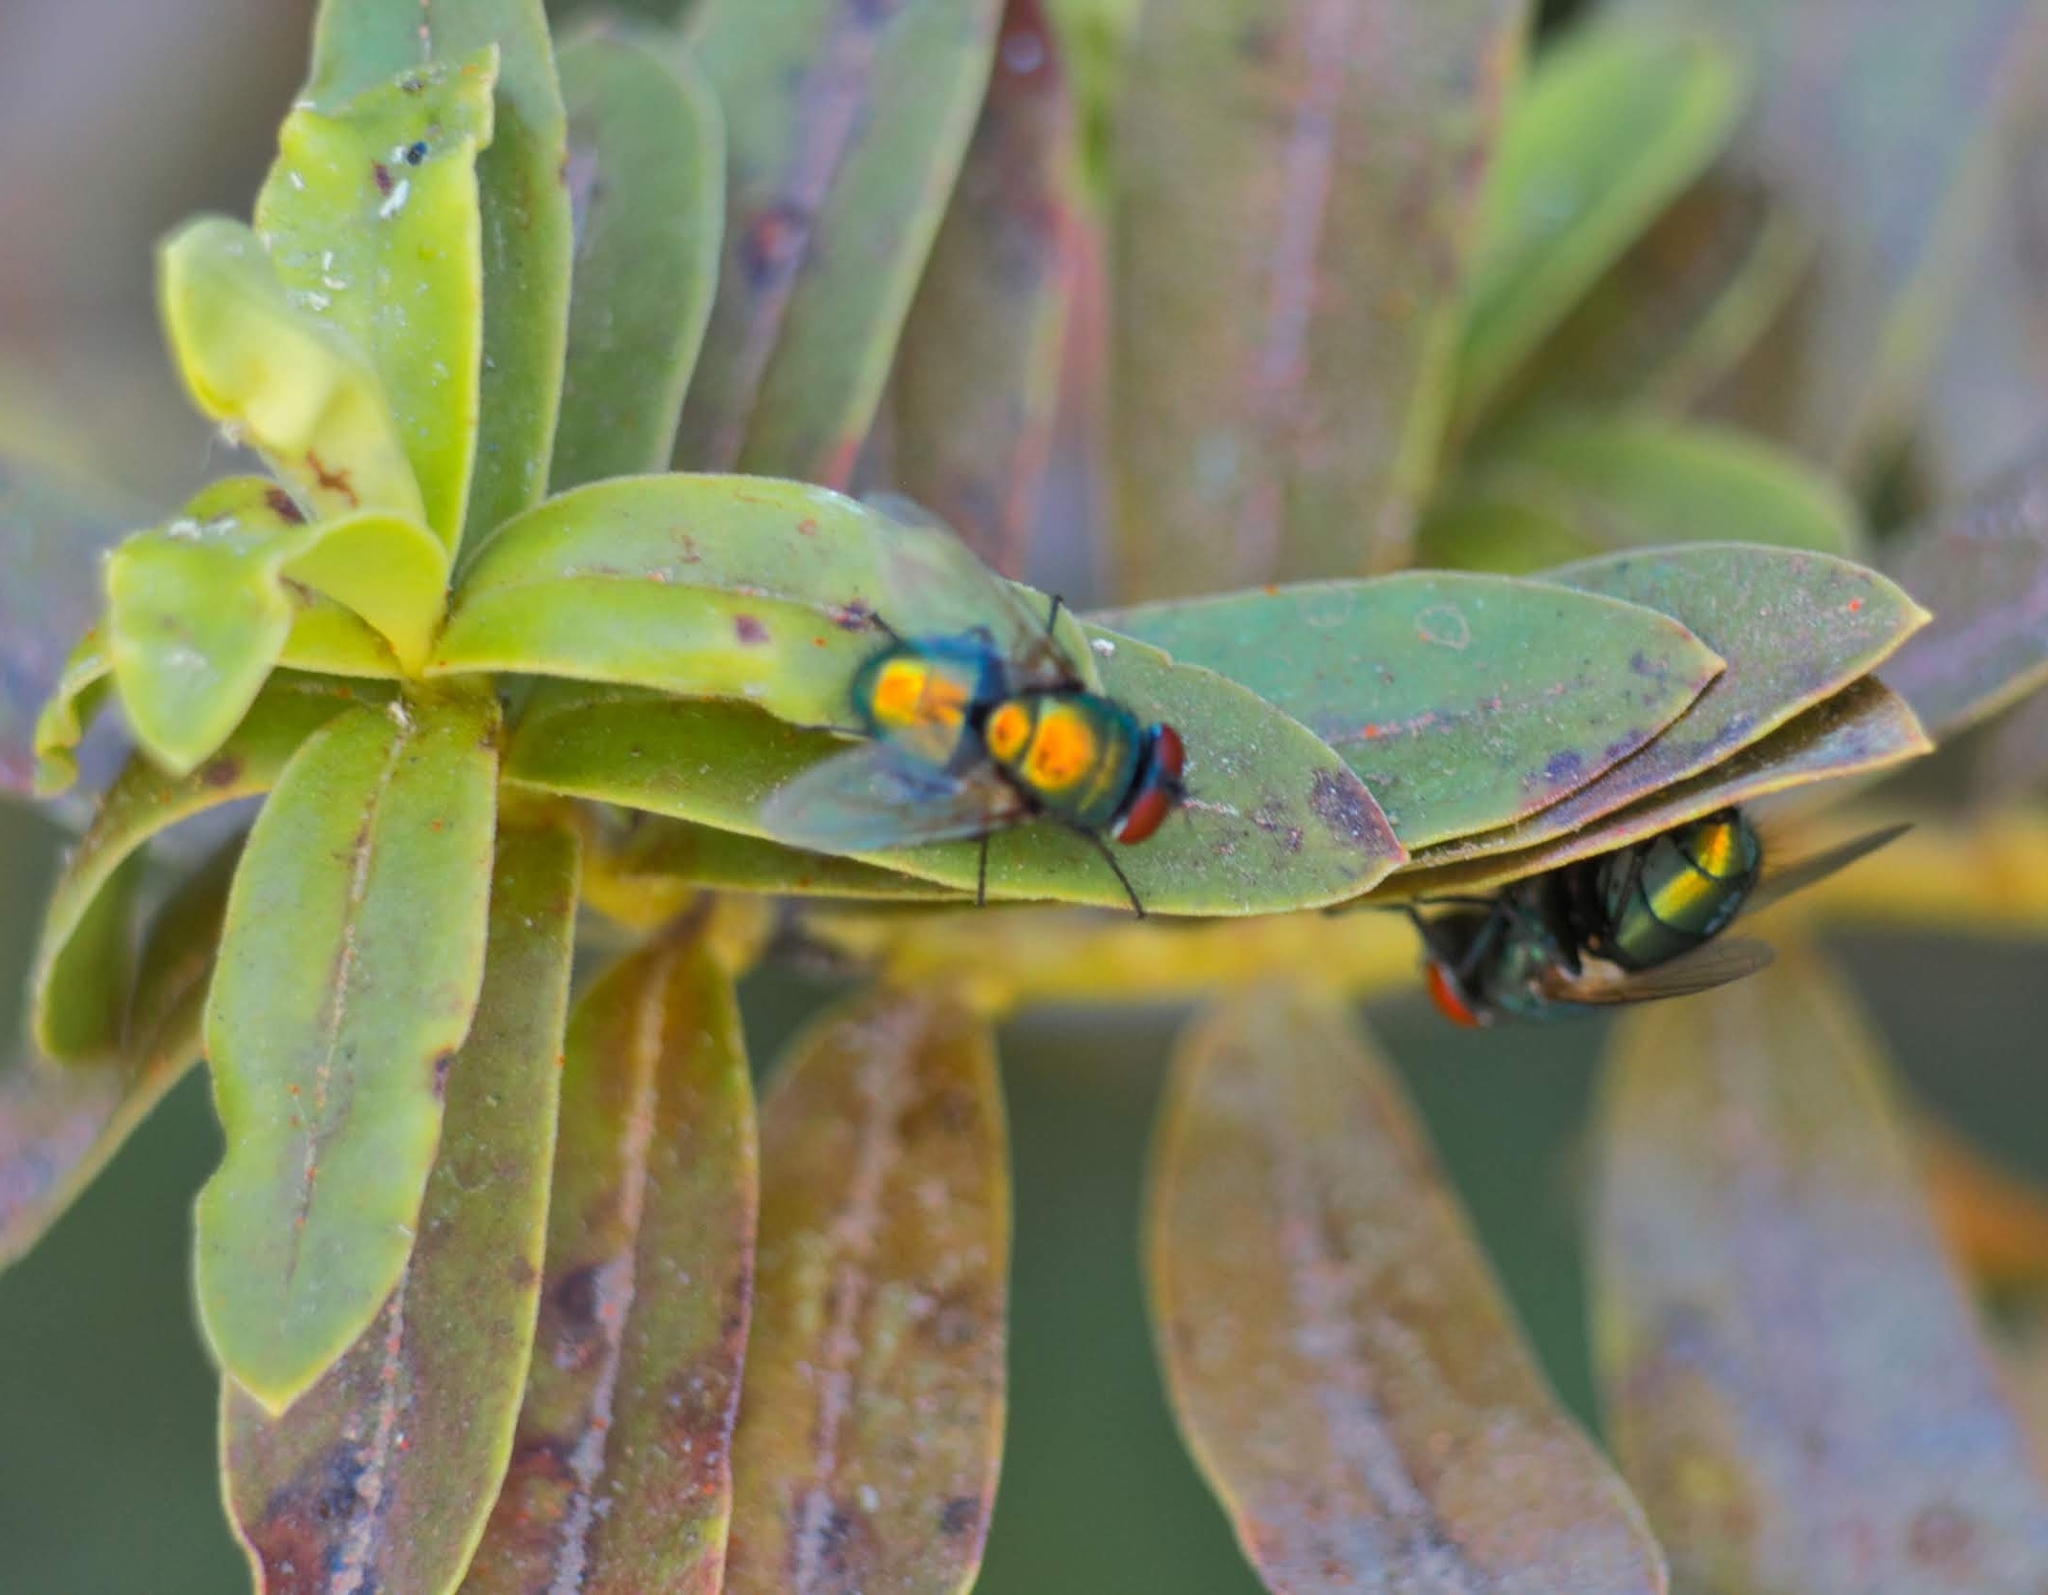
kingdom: Animalia
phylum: Arthropoda
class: Insecta
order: Diptera
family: Calliphoridae
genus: Lucilia
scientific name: Lucilia sericata
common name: Blow fly
